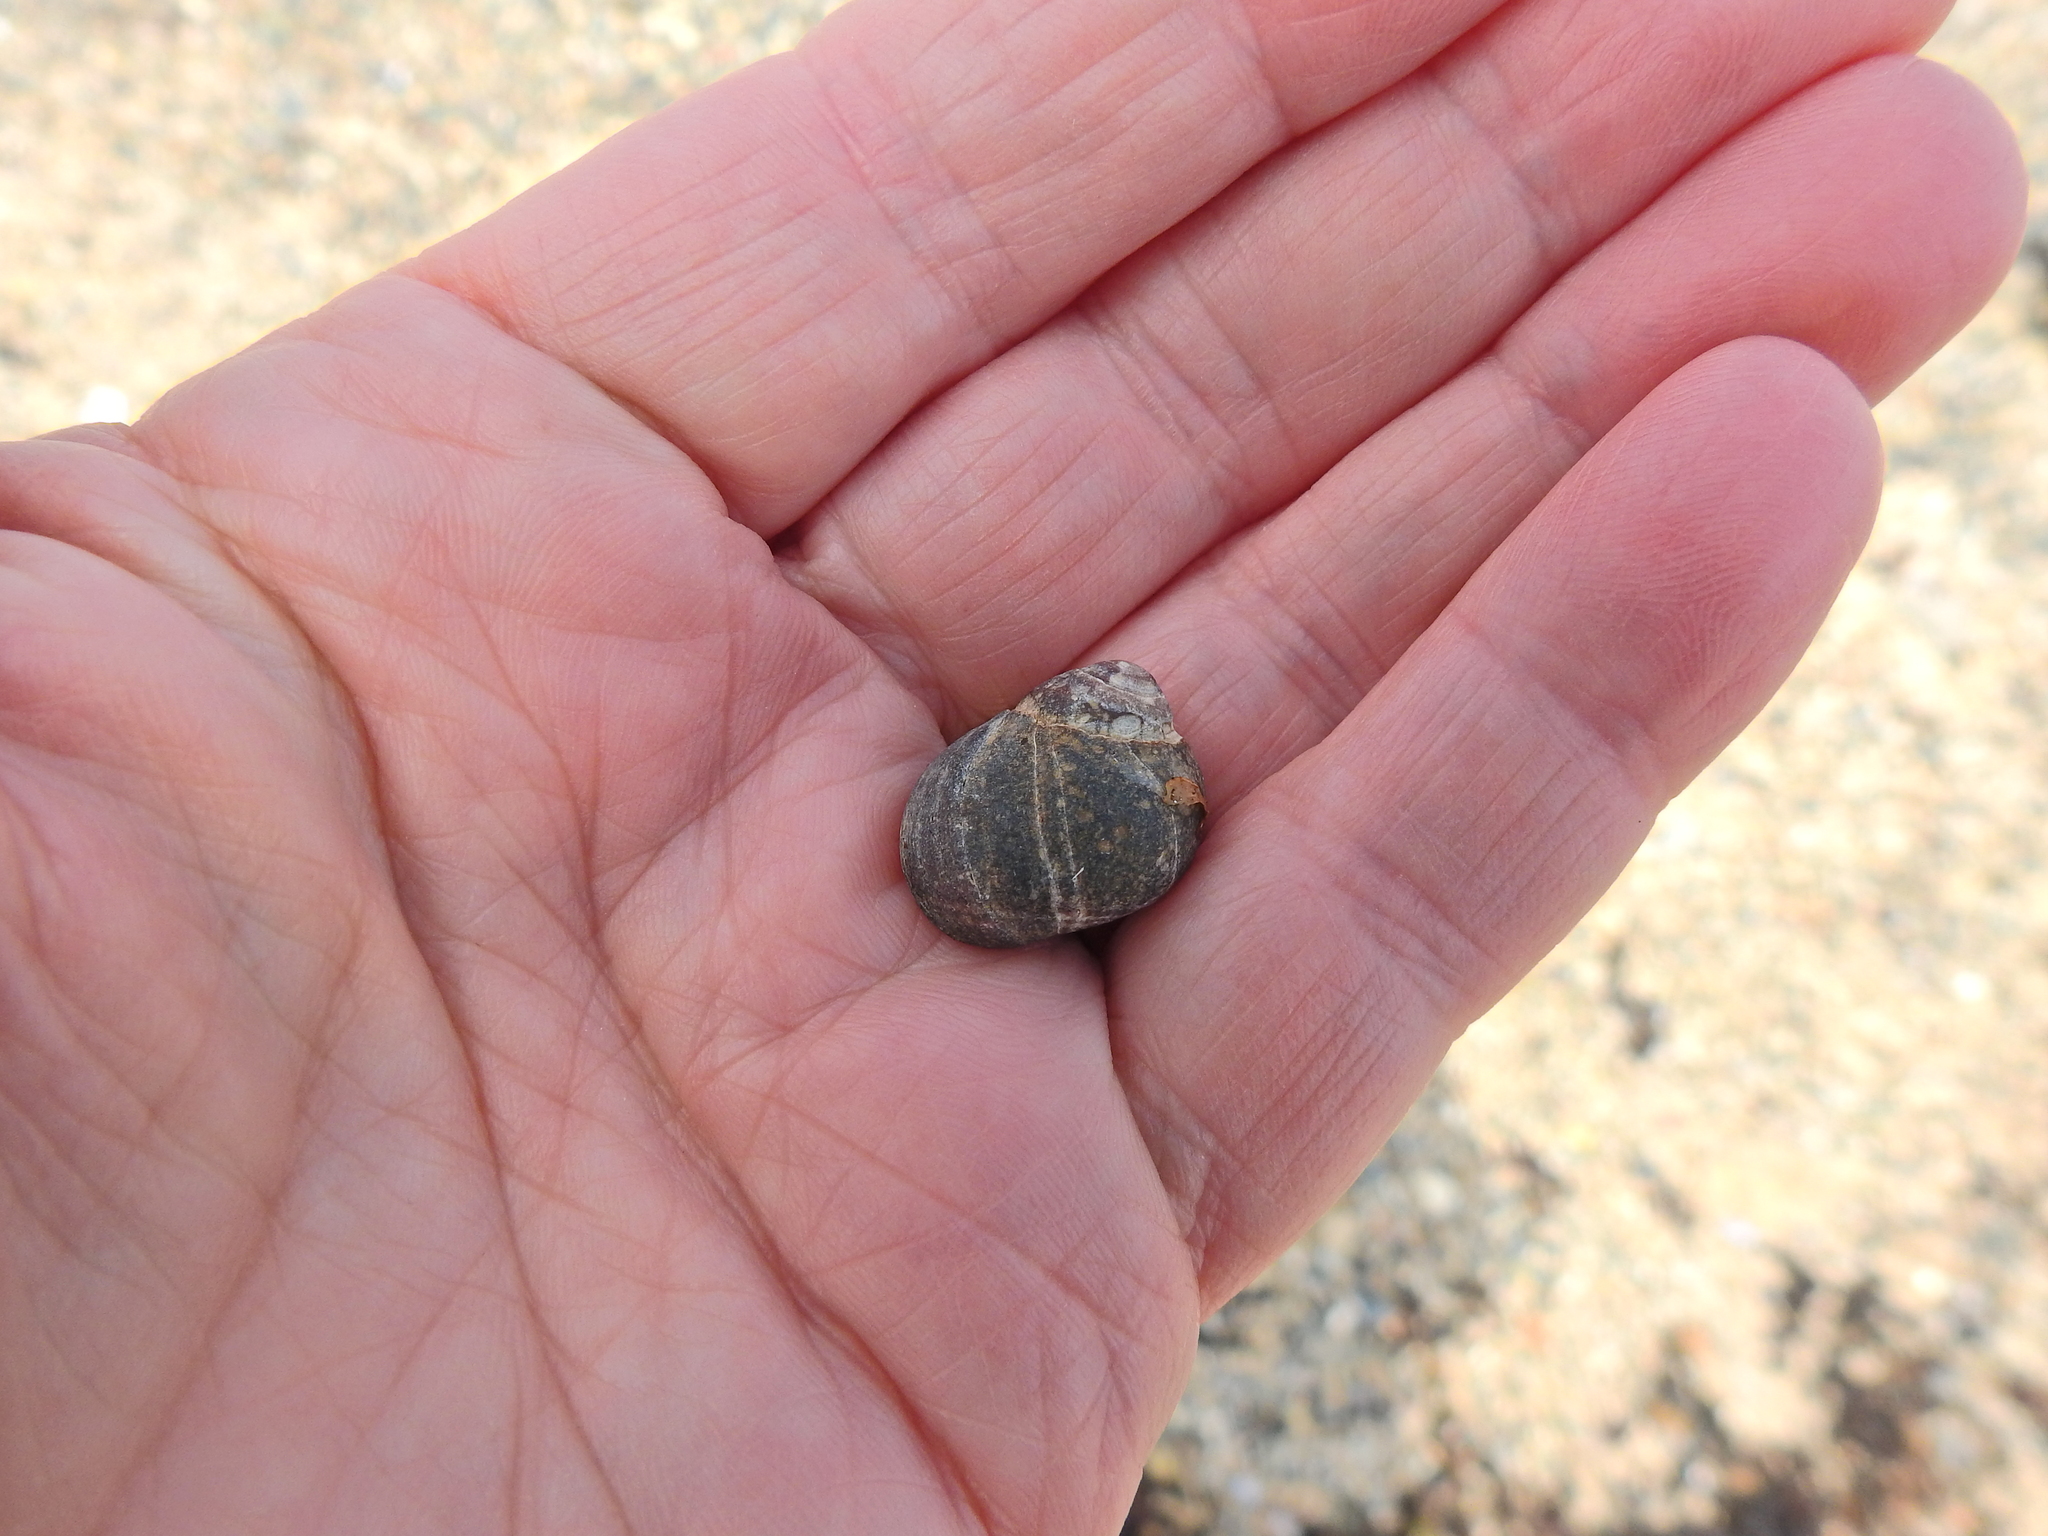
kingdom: Animalia
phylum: Mollusca
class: Gastropoda
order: Littorinimorpha
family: Littorinidae
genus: Littorina
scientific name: Littorina littorea
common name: Common periwinkle
